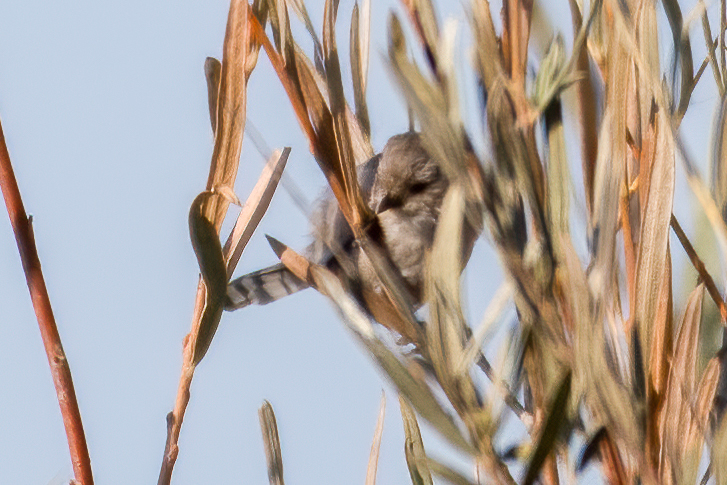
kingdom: Animalia
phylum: Chordata
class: Aves
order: Passeriformes
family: Aegithalidae
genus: Psaltriparus
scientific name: Psaltriparus minimus
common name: American bushtit
